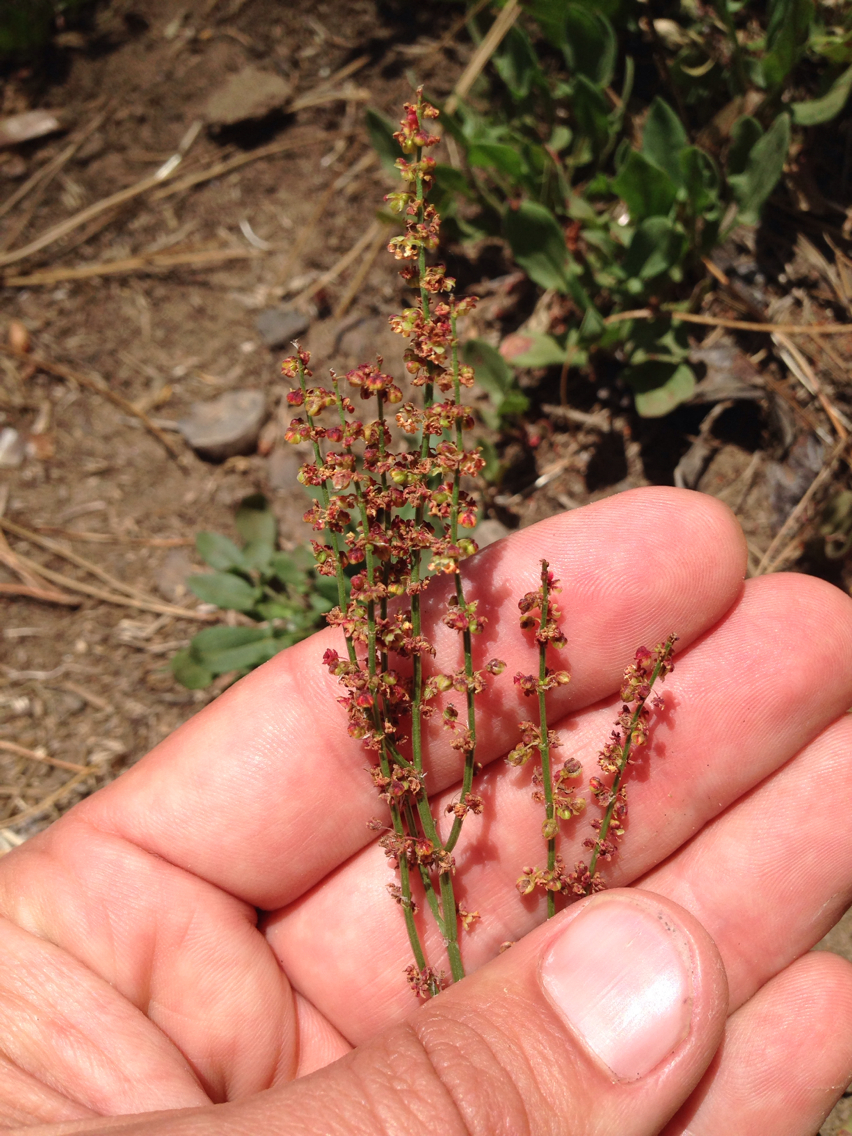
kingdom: Plantae
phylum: Tracheophyta
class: Magnoliopsida
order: Caryophyllales
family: Polygonaceae
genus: Rumex
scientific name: Rumex acetosella
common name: Common sheep sorrel
